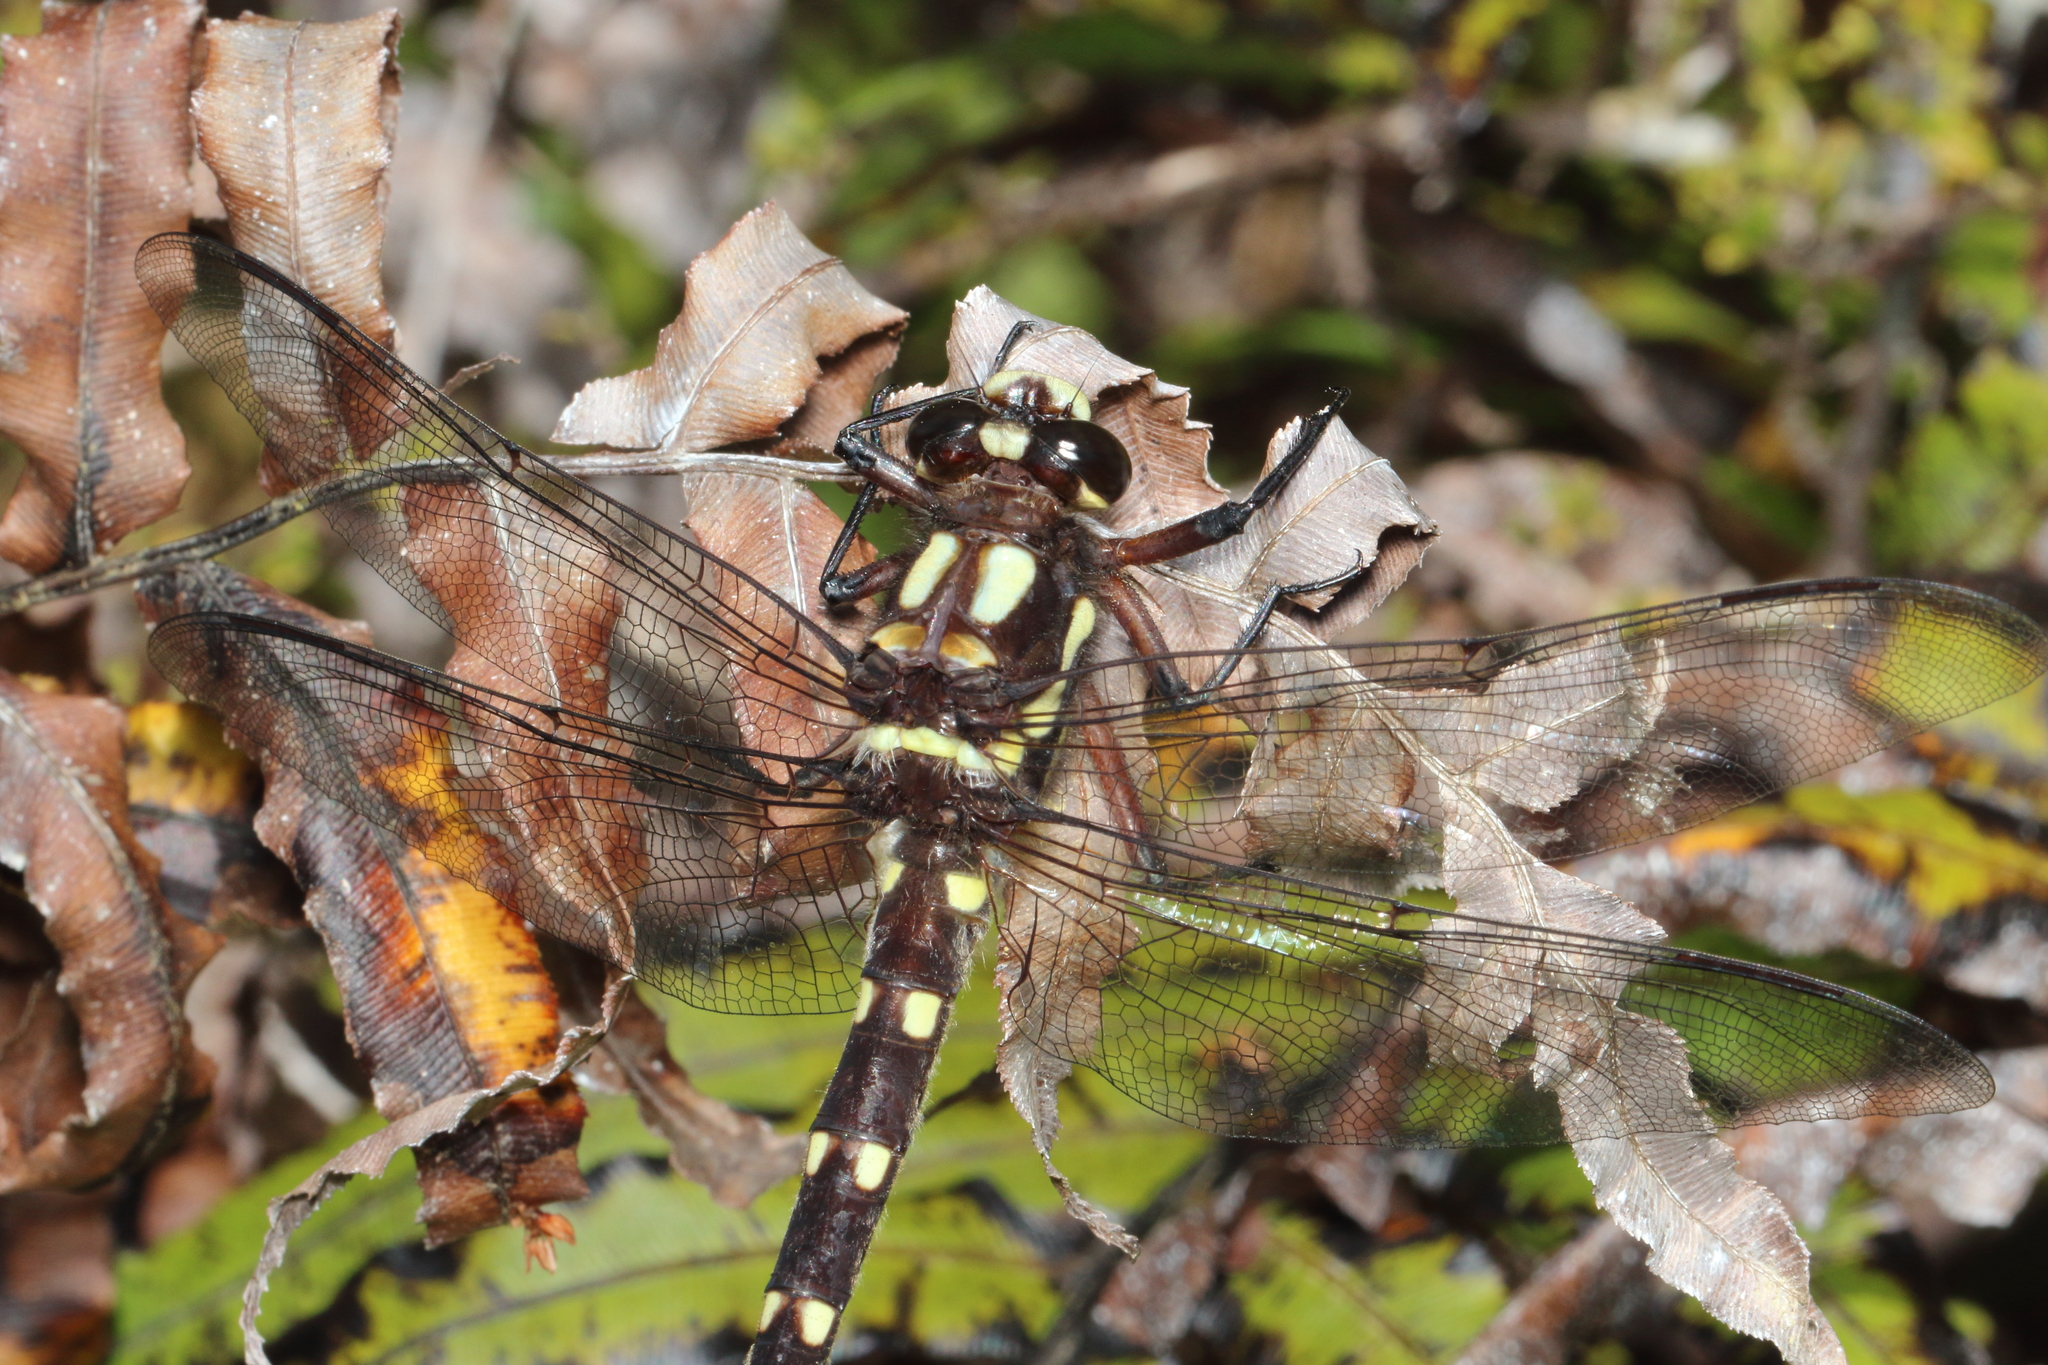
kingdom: Animalia
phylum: Arthropoda
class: Insecta
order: Odonata
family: Petaluridae
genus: Uropetala
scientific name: Uropetala carovei
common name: Bush giant dragonfly
